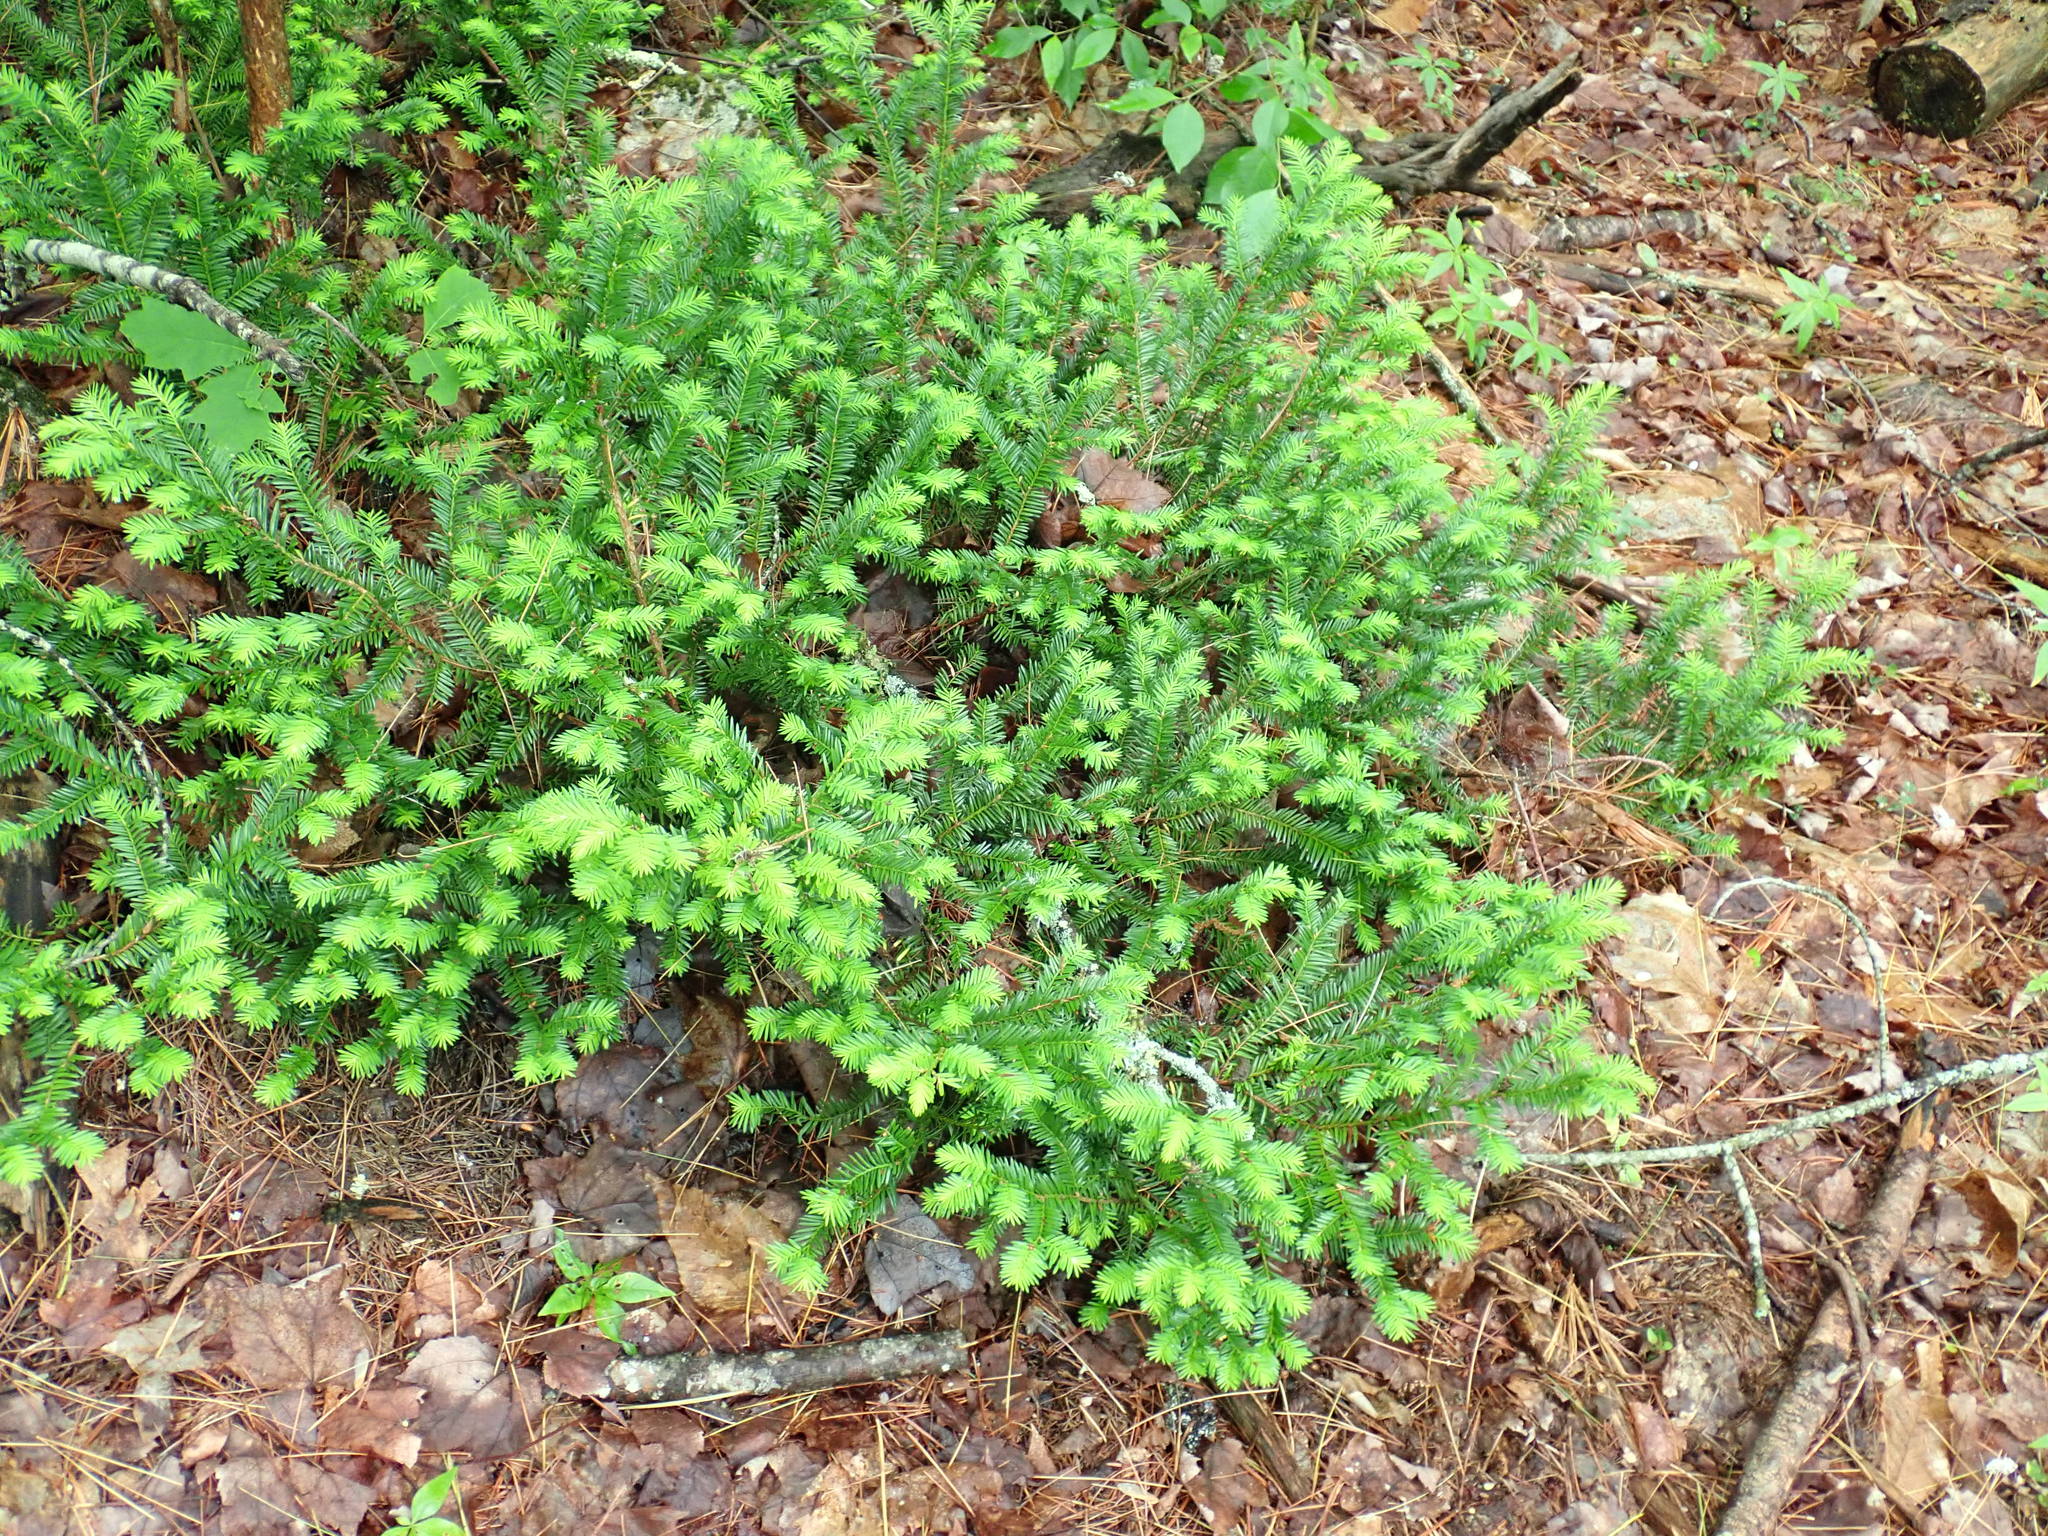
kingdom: Plantae
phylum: Tracheophyta
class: Pinopsida
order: Pinales
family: Taxaceae
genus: Taxus
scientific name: Taxus canadensis
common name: American yew
